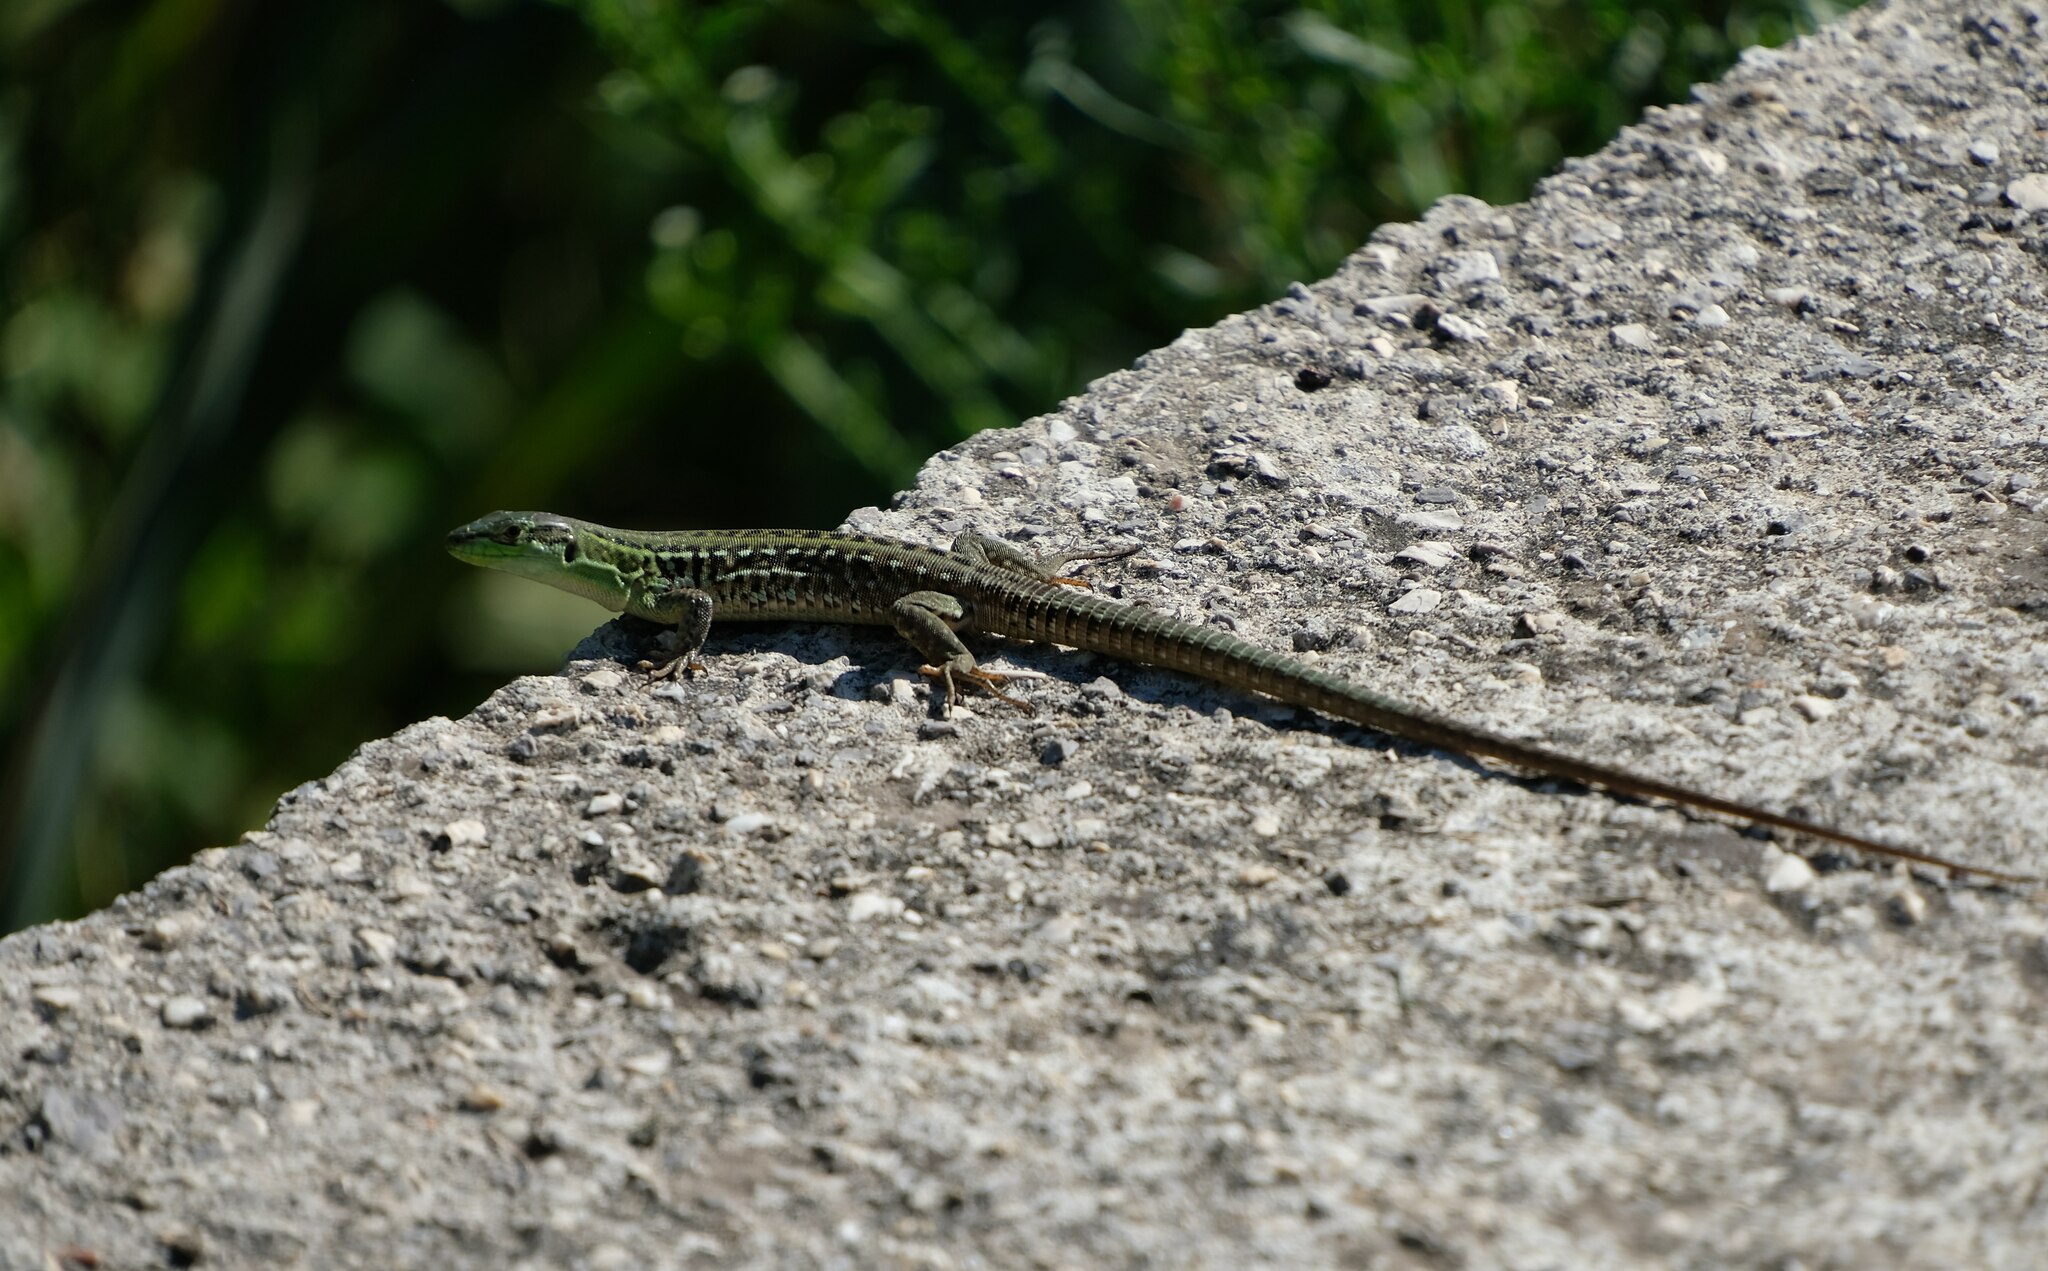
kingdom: Animalia
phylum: Chordata
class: Squamata
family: Lacertidae
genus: Podarcis
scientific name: Podarcis siculus
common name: Italian wall lizard
